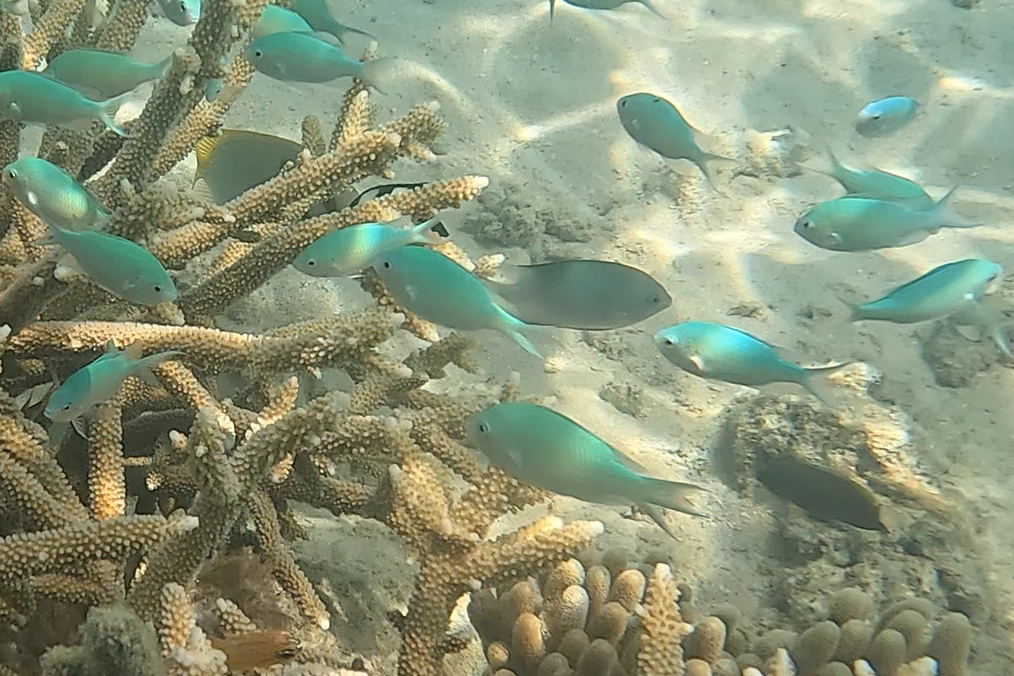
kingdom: Animalia
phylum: Chordata
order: Perciformes
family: Pomacentridae
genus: Chromis
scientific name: Chromis viridis
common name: Blue-green chromis
